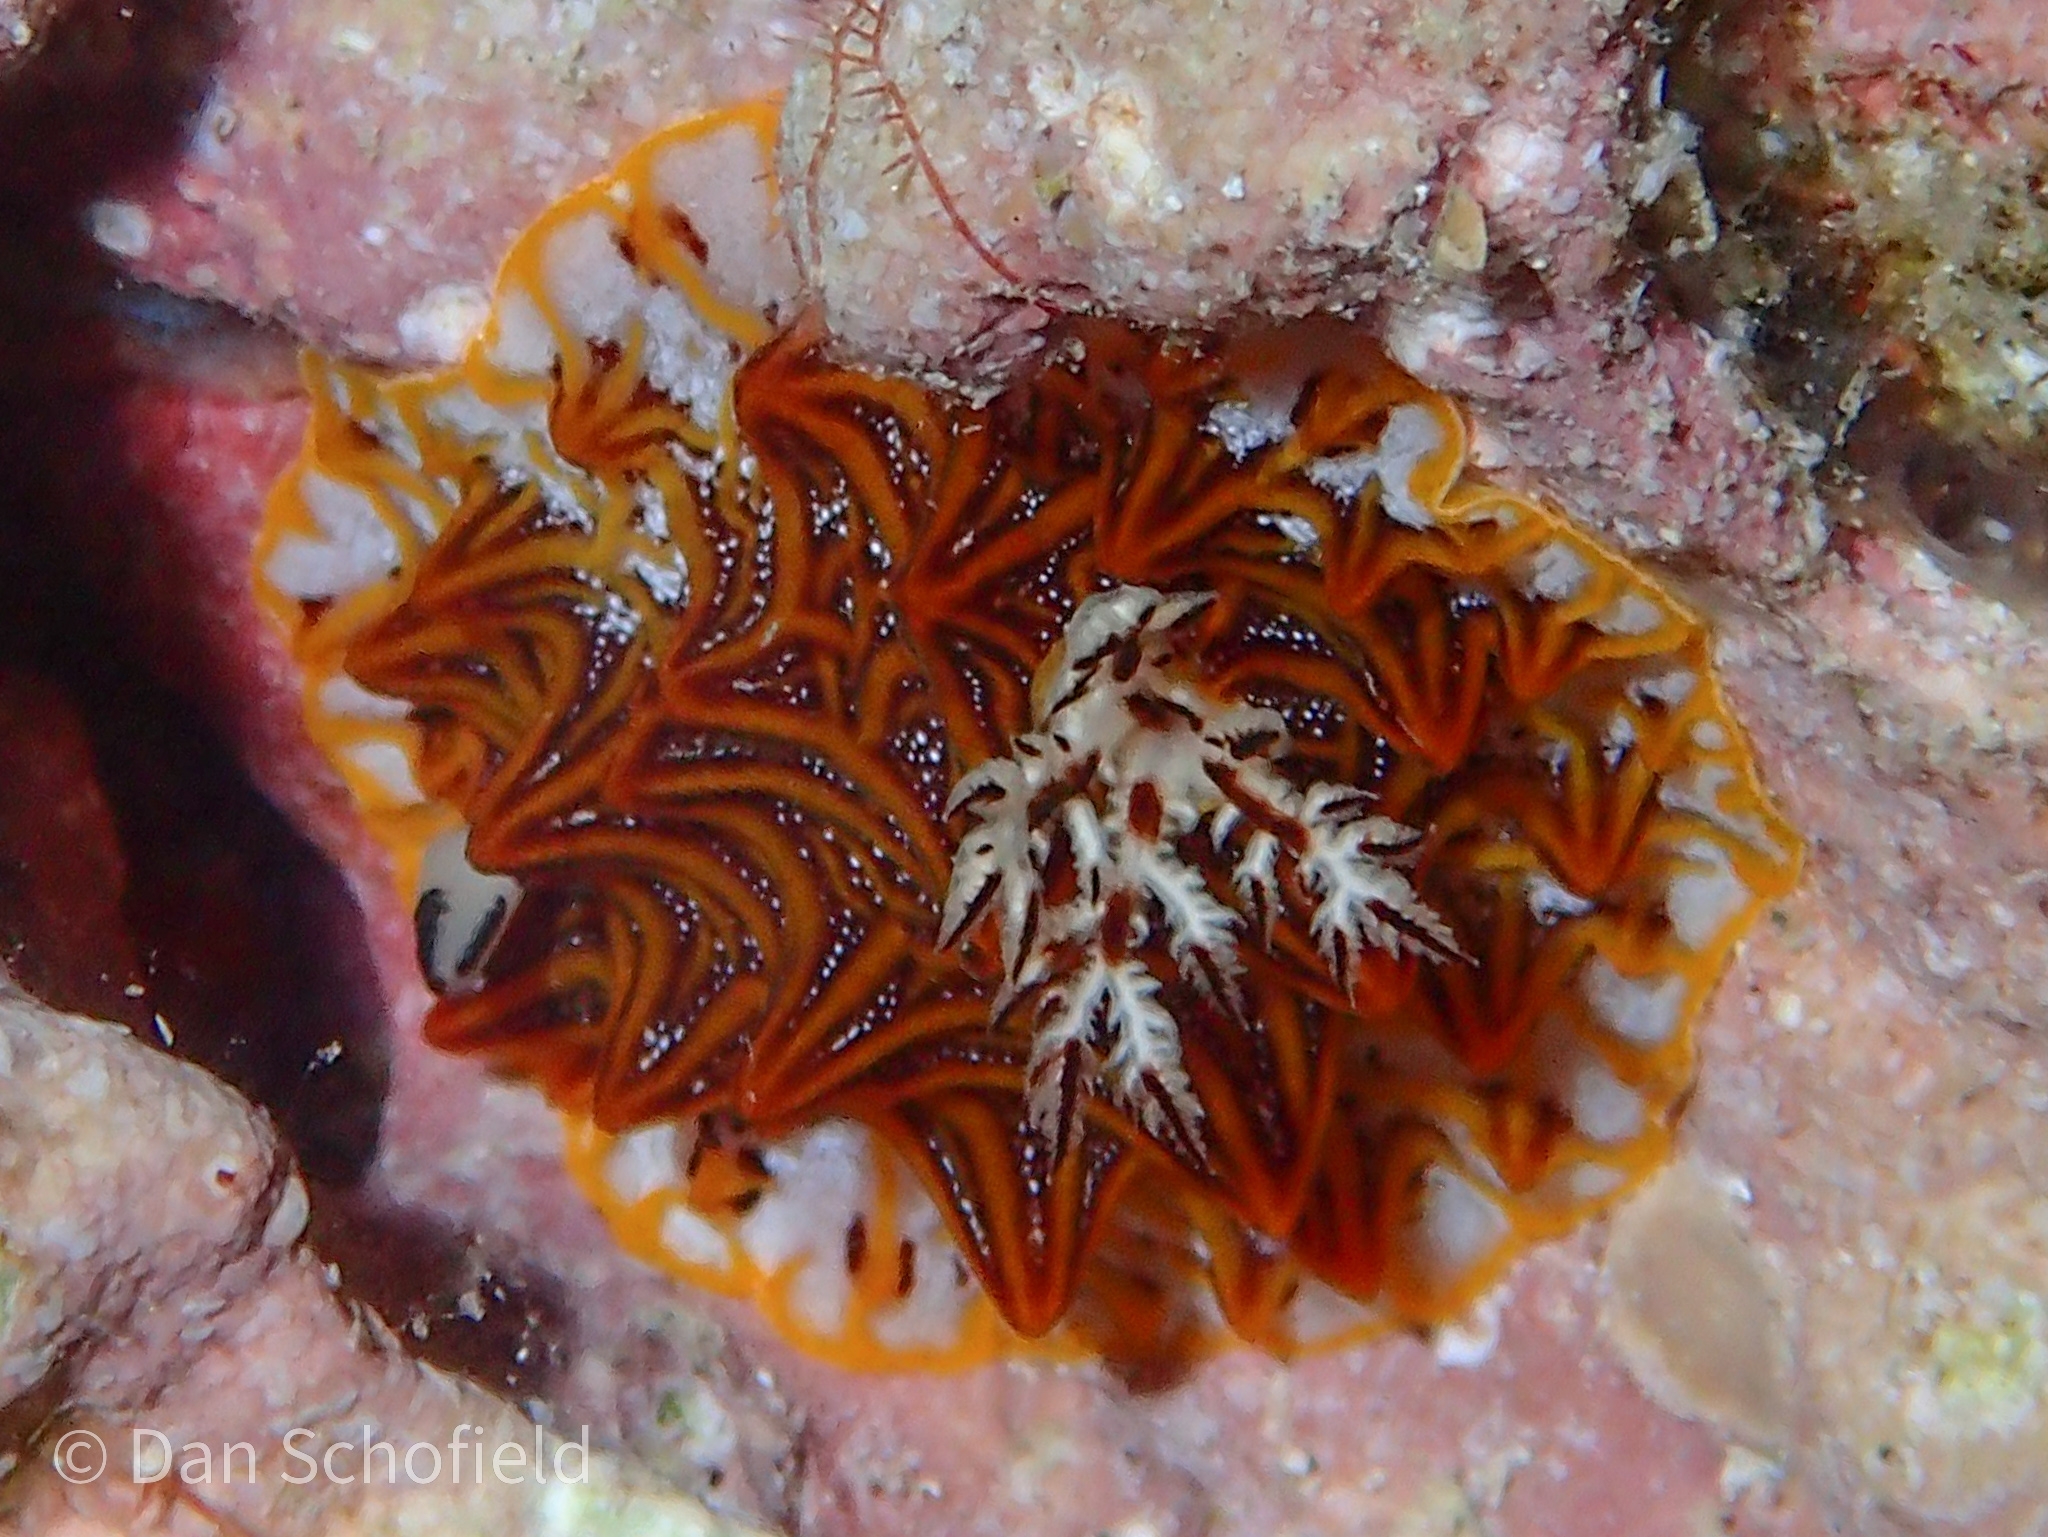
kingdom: Animalia
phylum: Mollusca
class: Gastropoda
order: Nudibranchia
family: Discodorididae
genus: Halgerda
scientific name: Halgerda tessellata
